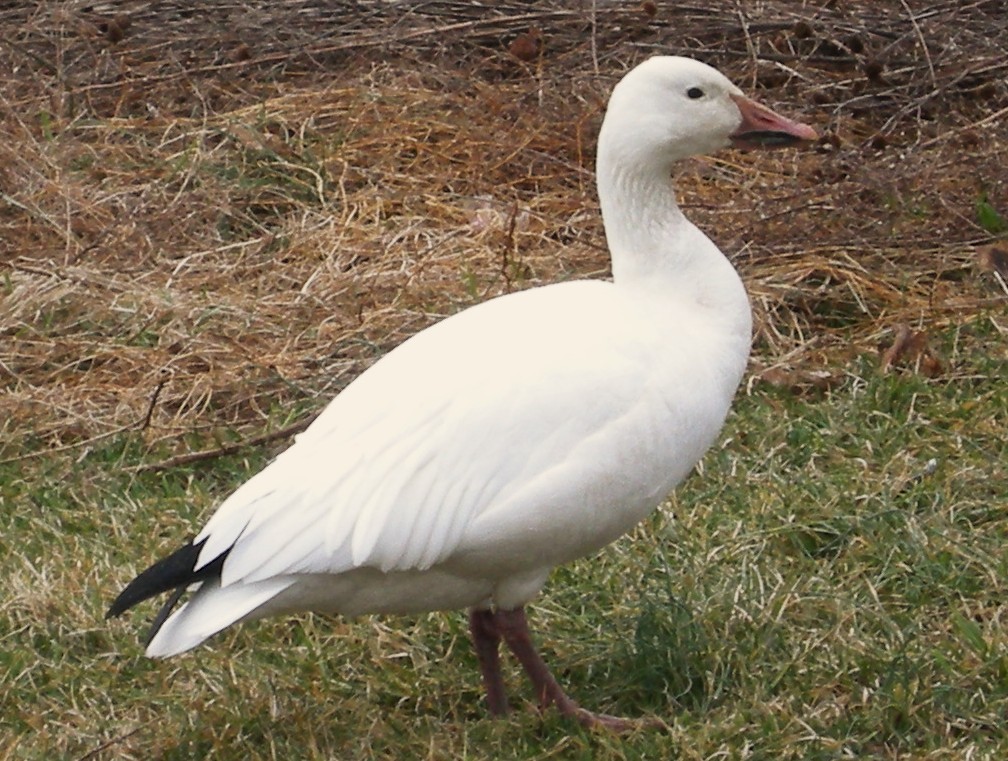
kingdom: Animalia
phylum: Chordata
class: Aves
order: Anseriformes
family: Anatidae
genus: Anser
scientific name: Anser caerulescens
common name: Snow goose
